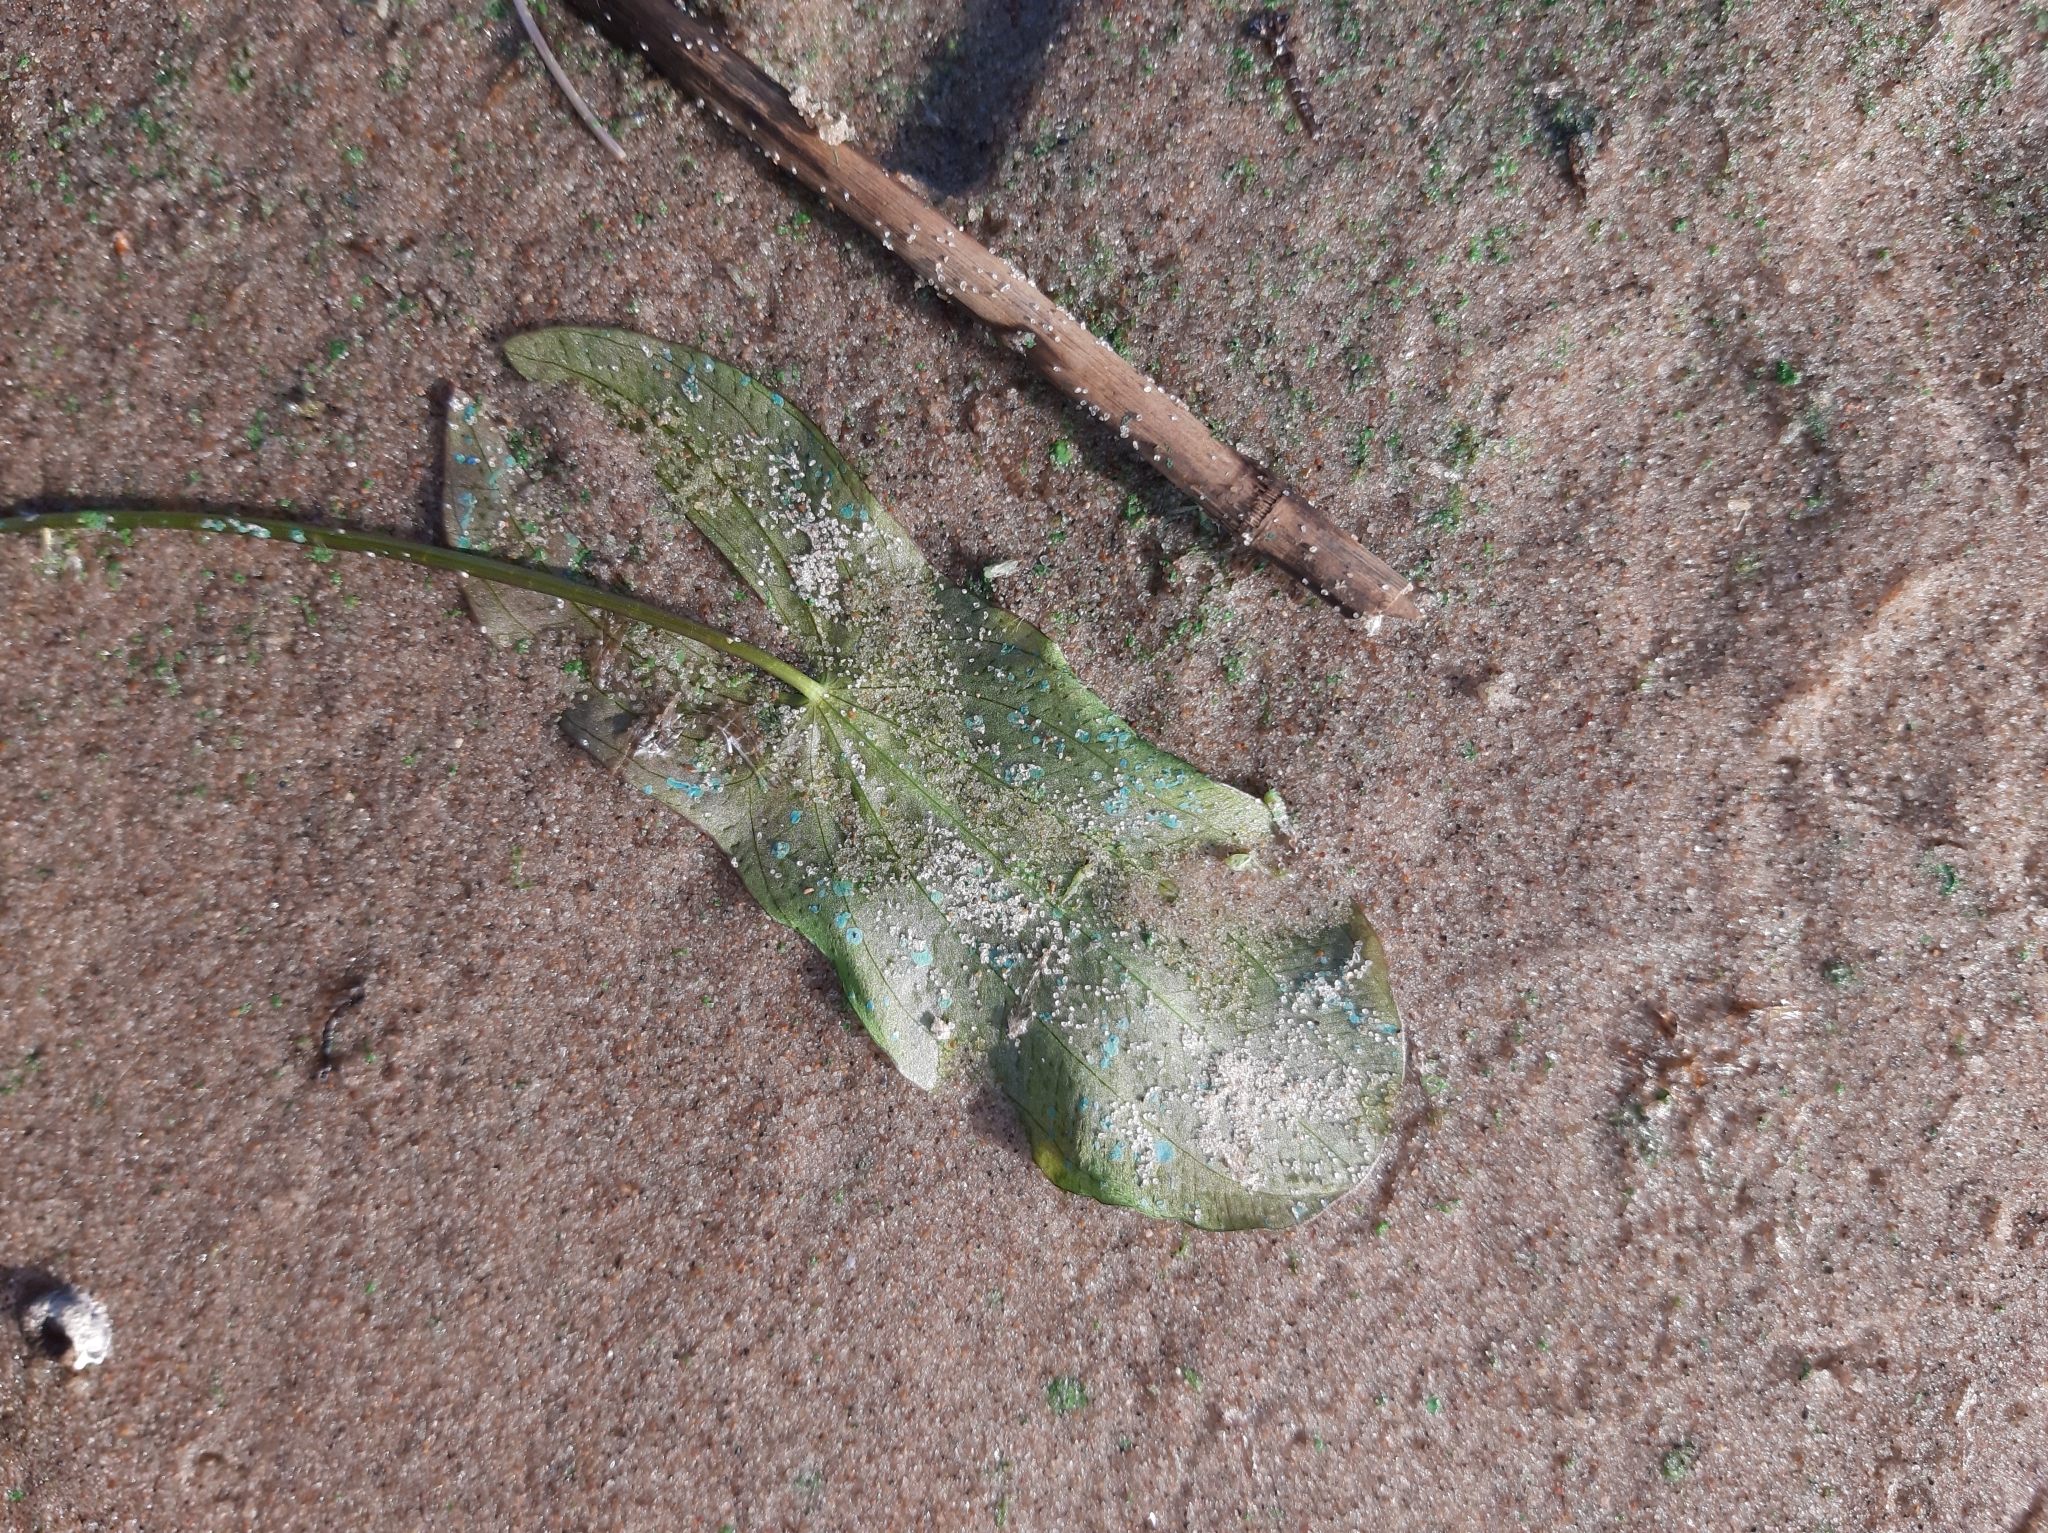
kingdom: Plantae
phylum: Tracheophyta
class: Liliopsida
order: Alismatales
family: Alismataceae
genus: Sagittaria
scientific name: Sagittaria sagittifolia
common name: Arrowhead
